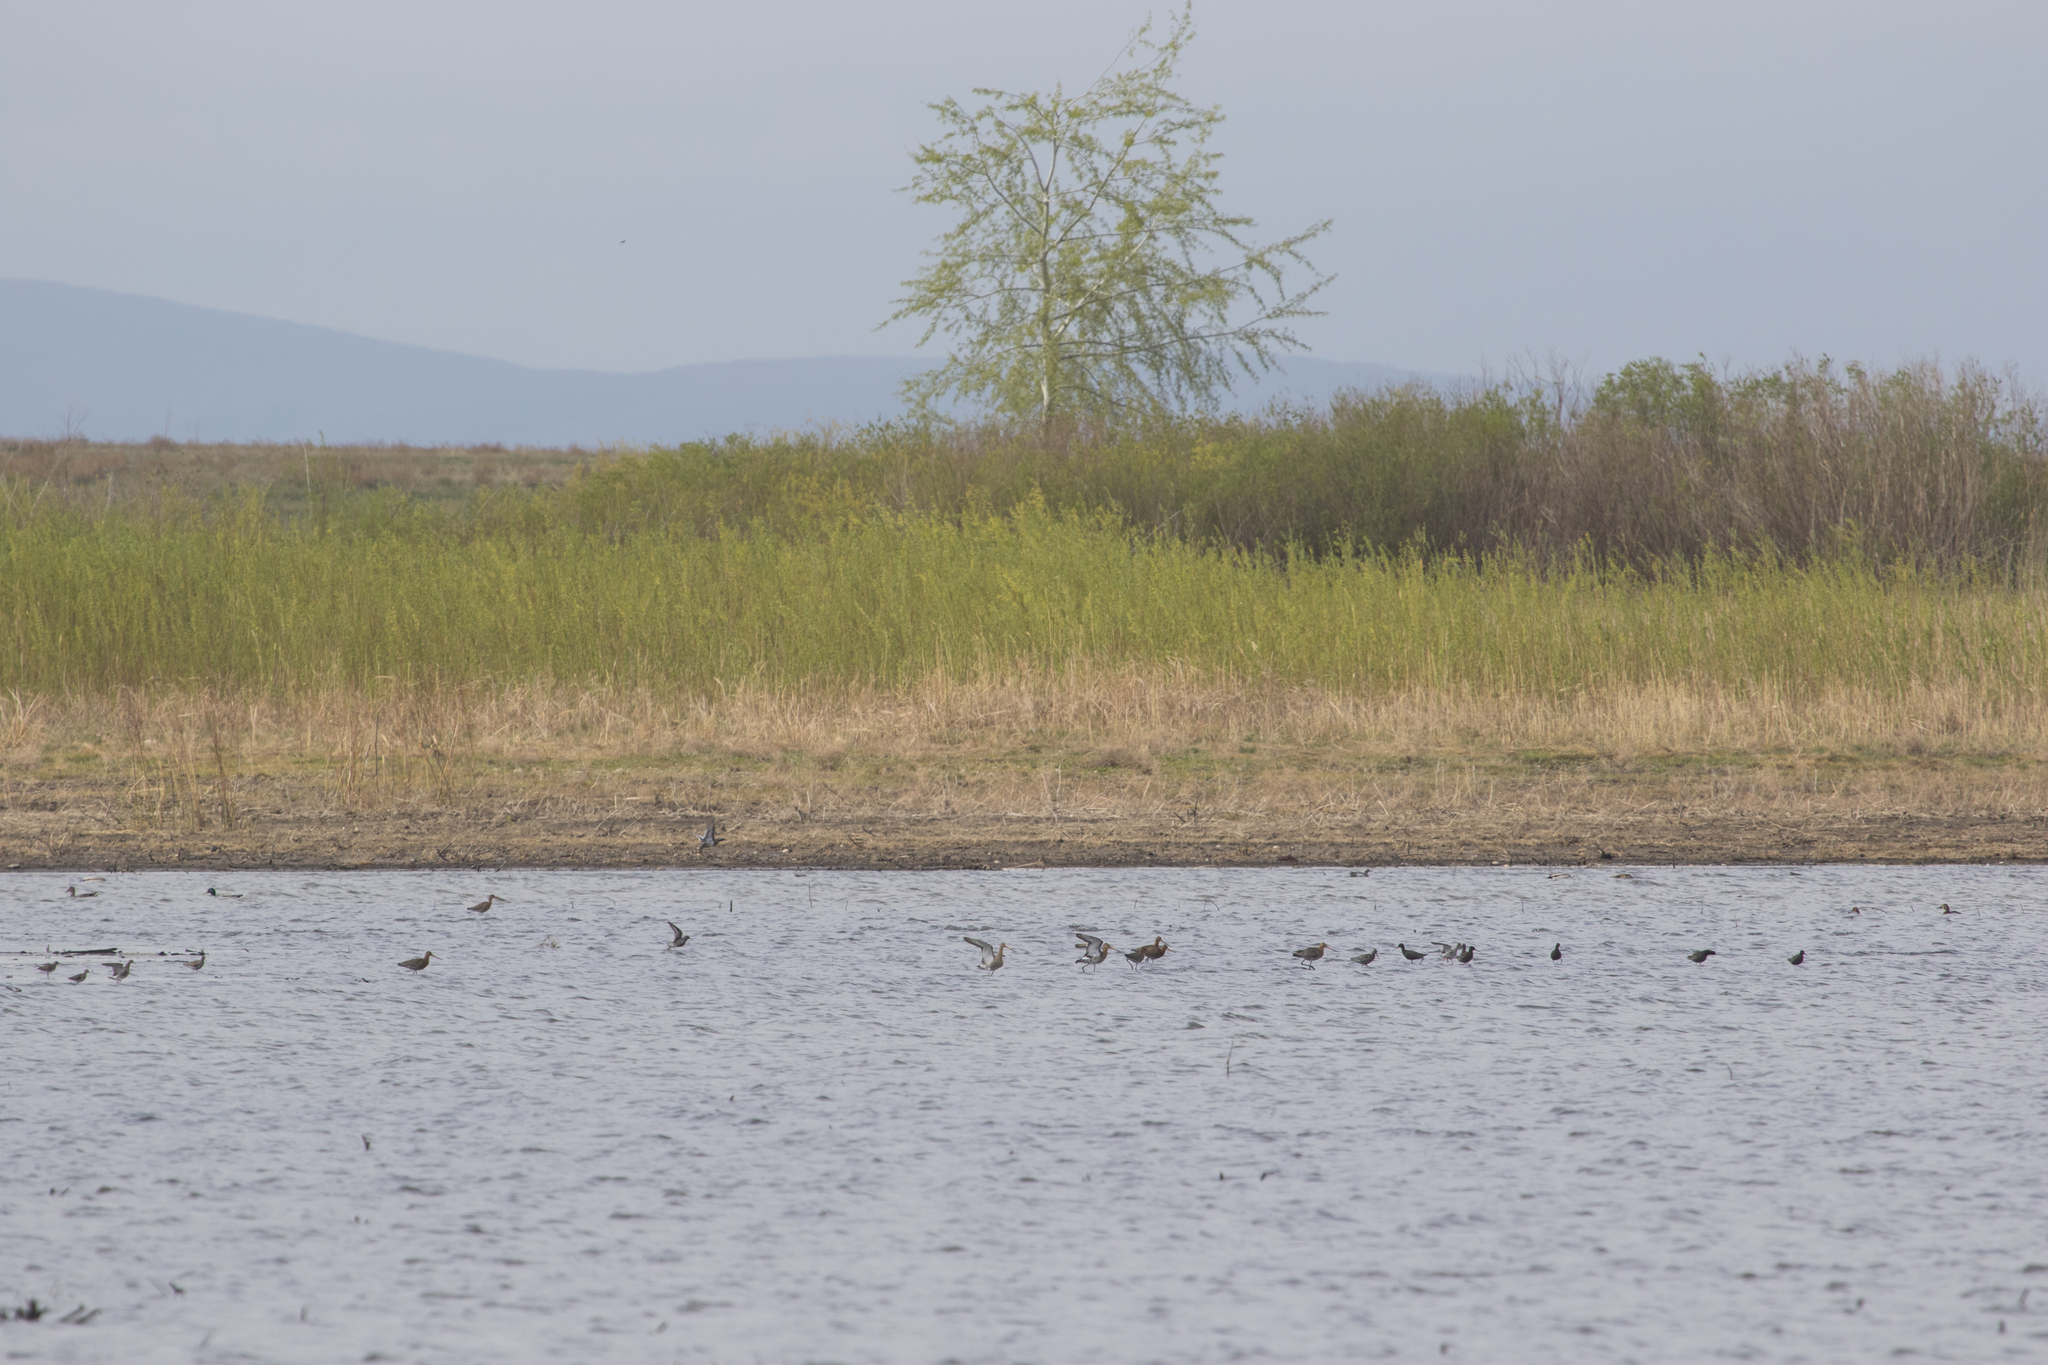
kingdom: Animalia
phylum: Chordata
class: Aves
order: Charadriiformes
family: Scolopacidae
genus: Tringa
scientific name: Tringa erythropus
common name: Spotted redshank
